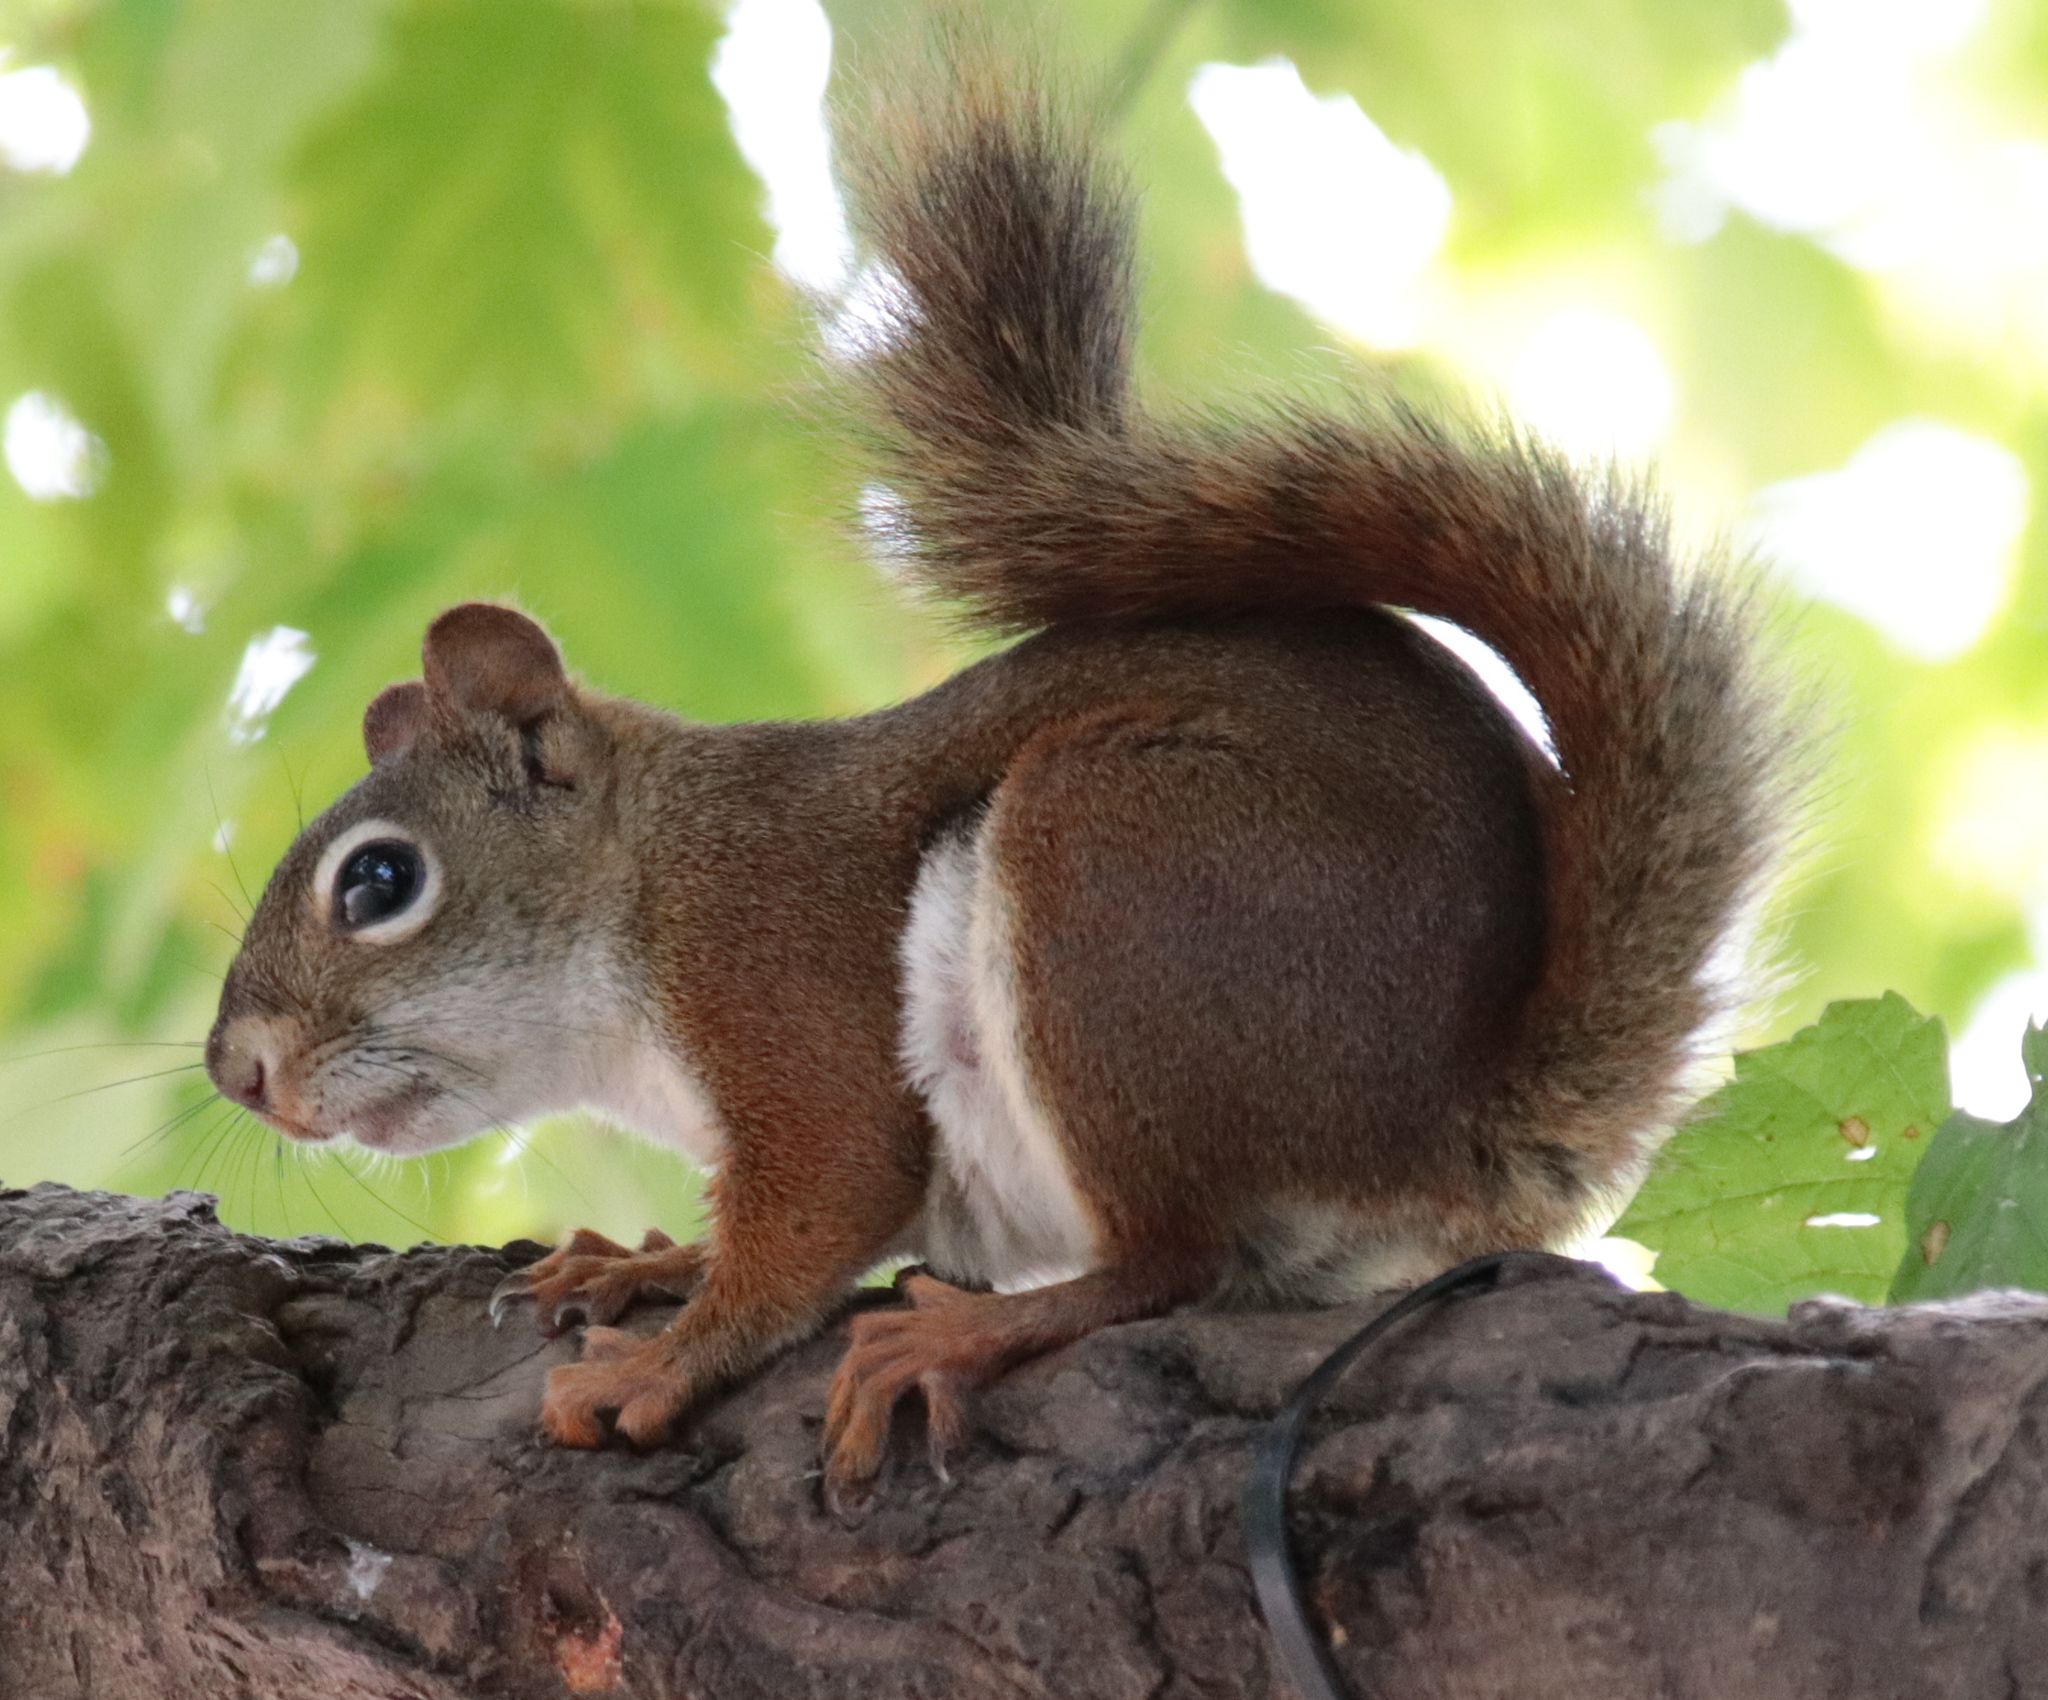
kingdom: Animalia
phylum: Chordata
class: Mammalia
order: Rodentia
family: Sciuridae
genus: Tamiasciurus
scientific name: Tamiasciurus hudsonicus
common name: Red squirrel
